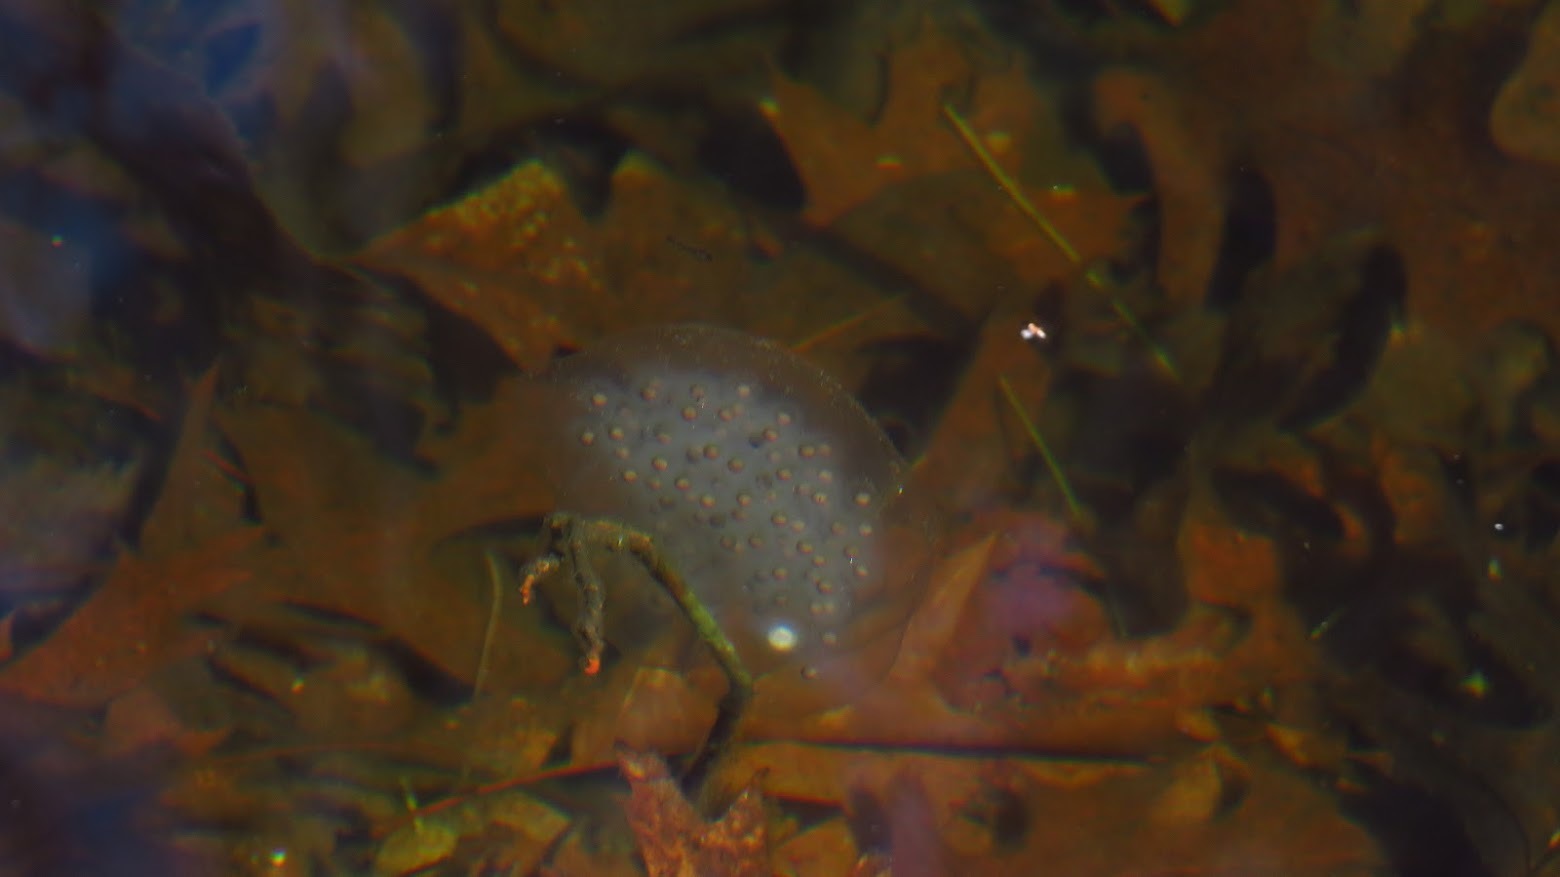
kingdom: Animalia
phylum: Chordata
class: Amphibia
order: Caudata
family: Ambystomatidae
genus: Ambystoma
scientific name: Ambystoma maculatum
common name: Spotted salamander
